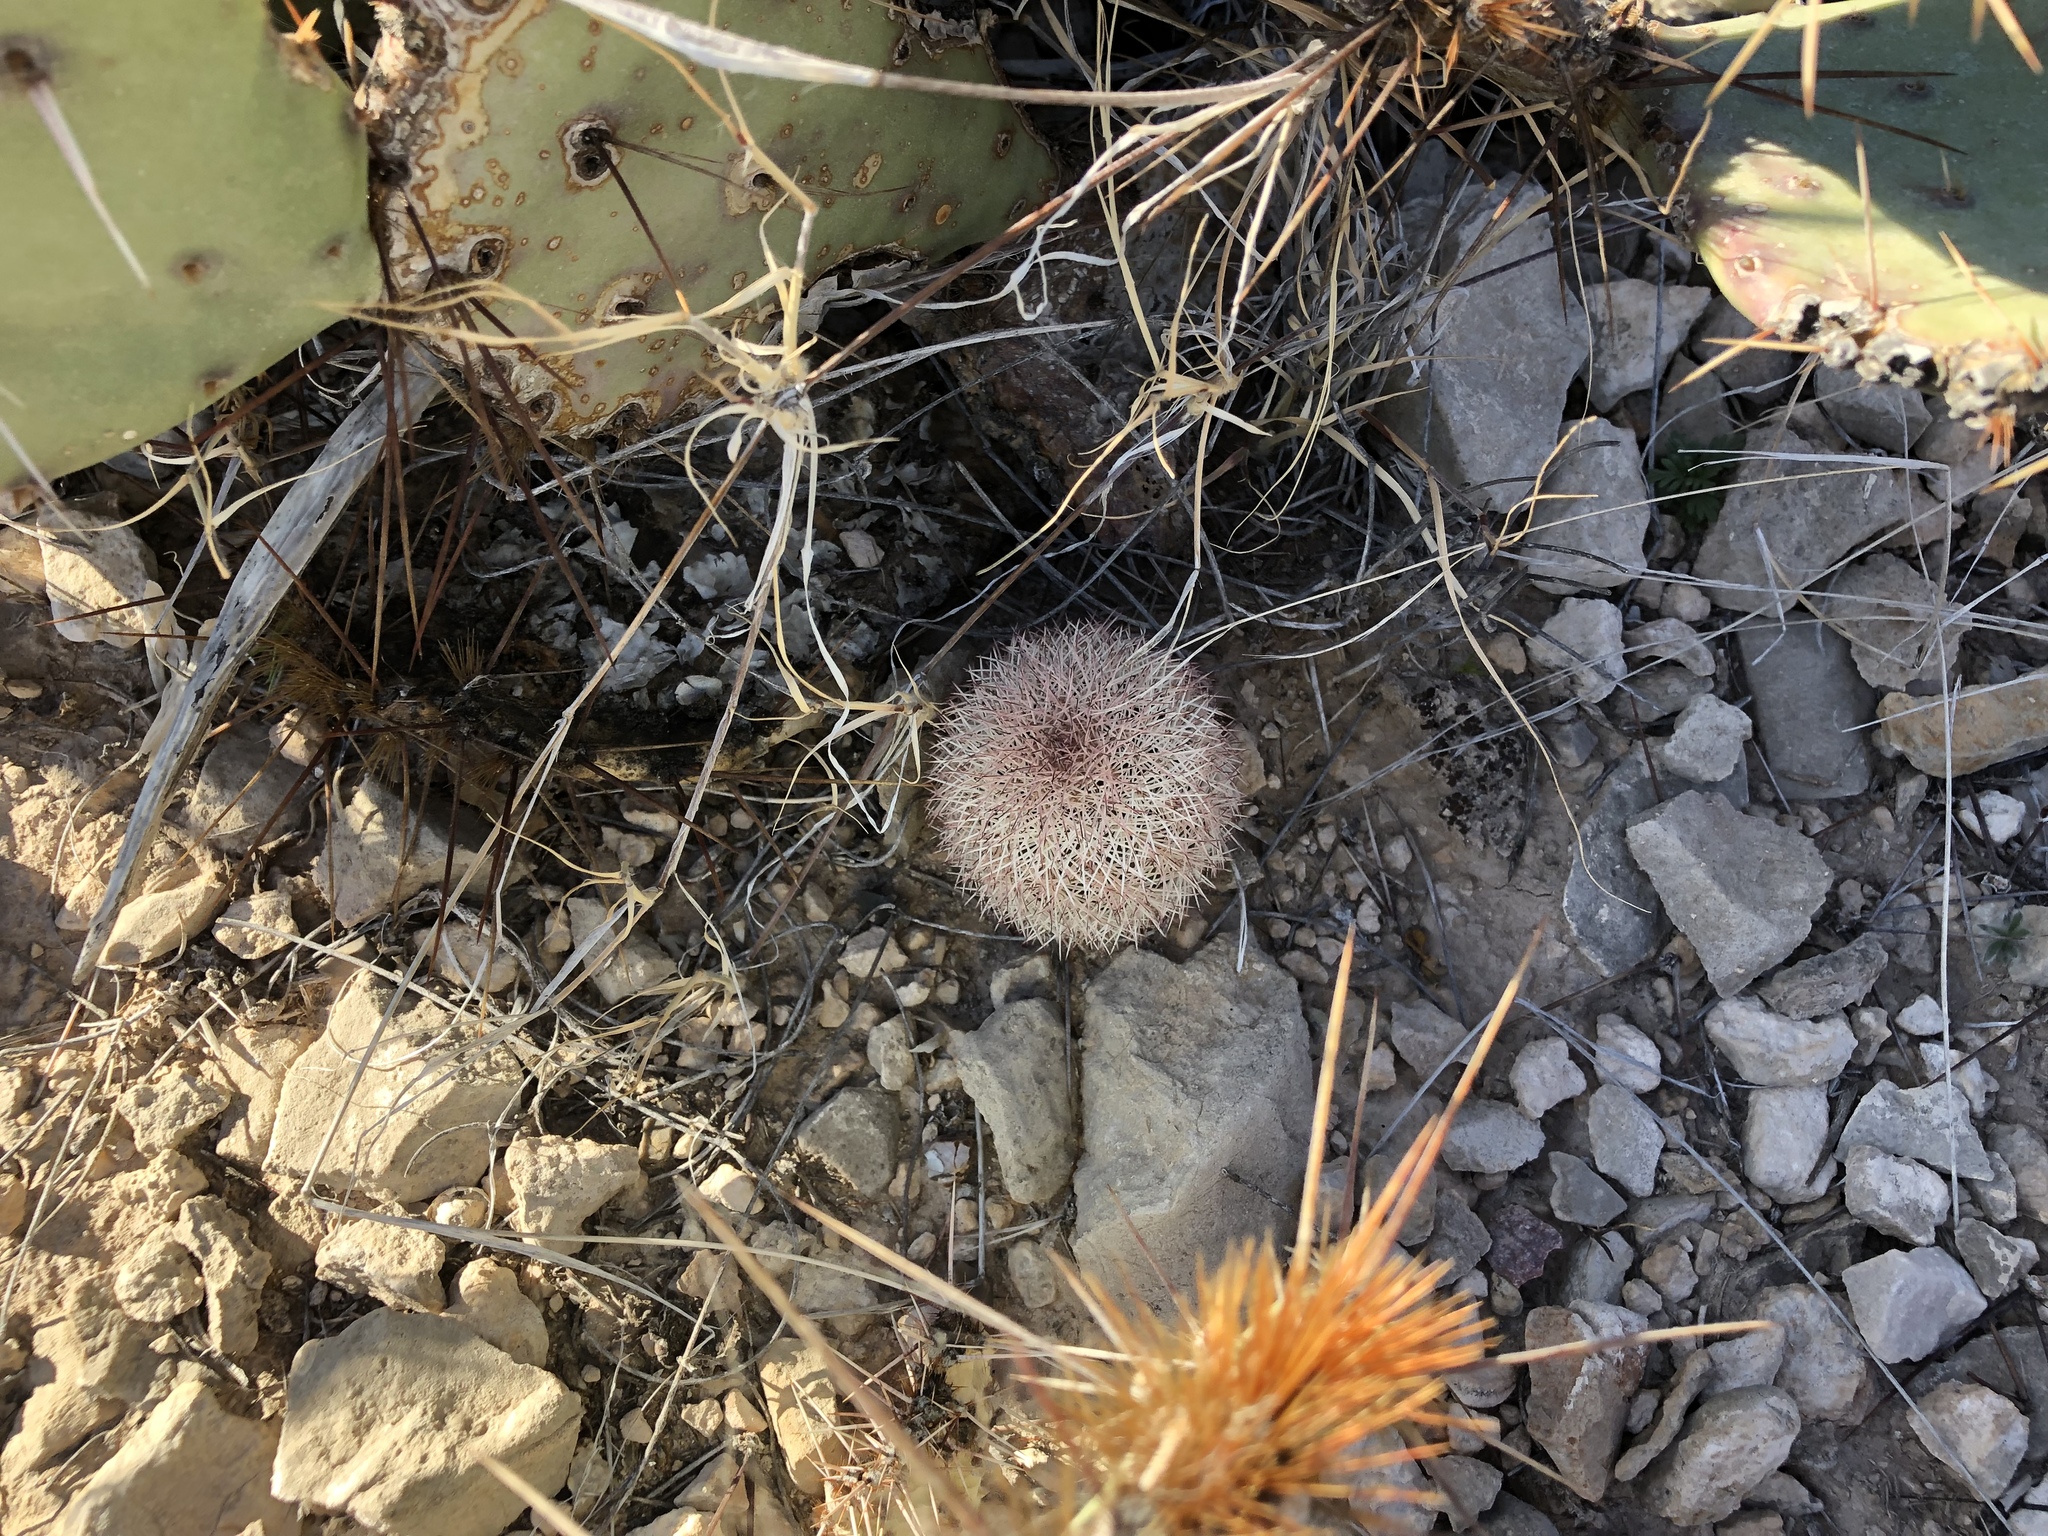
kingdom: Plantae
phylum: Tracheophyta
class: Magnoliopsida
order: Caryophyllales
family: Cactaceae
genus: Echinocereus
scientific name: Echinocereus dasyacanthus
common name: Spiny hedgehog cactus
